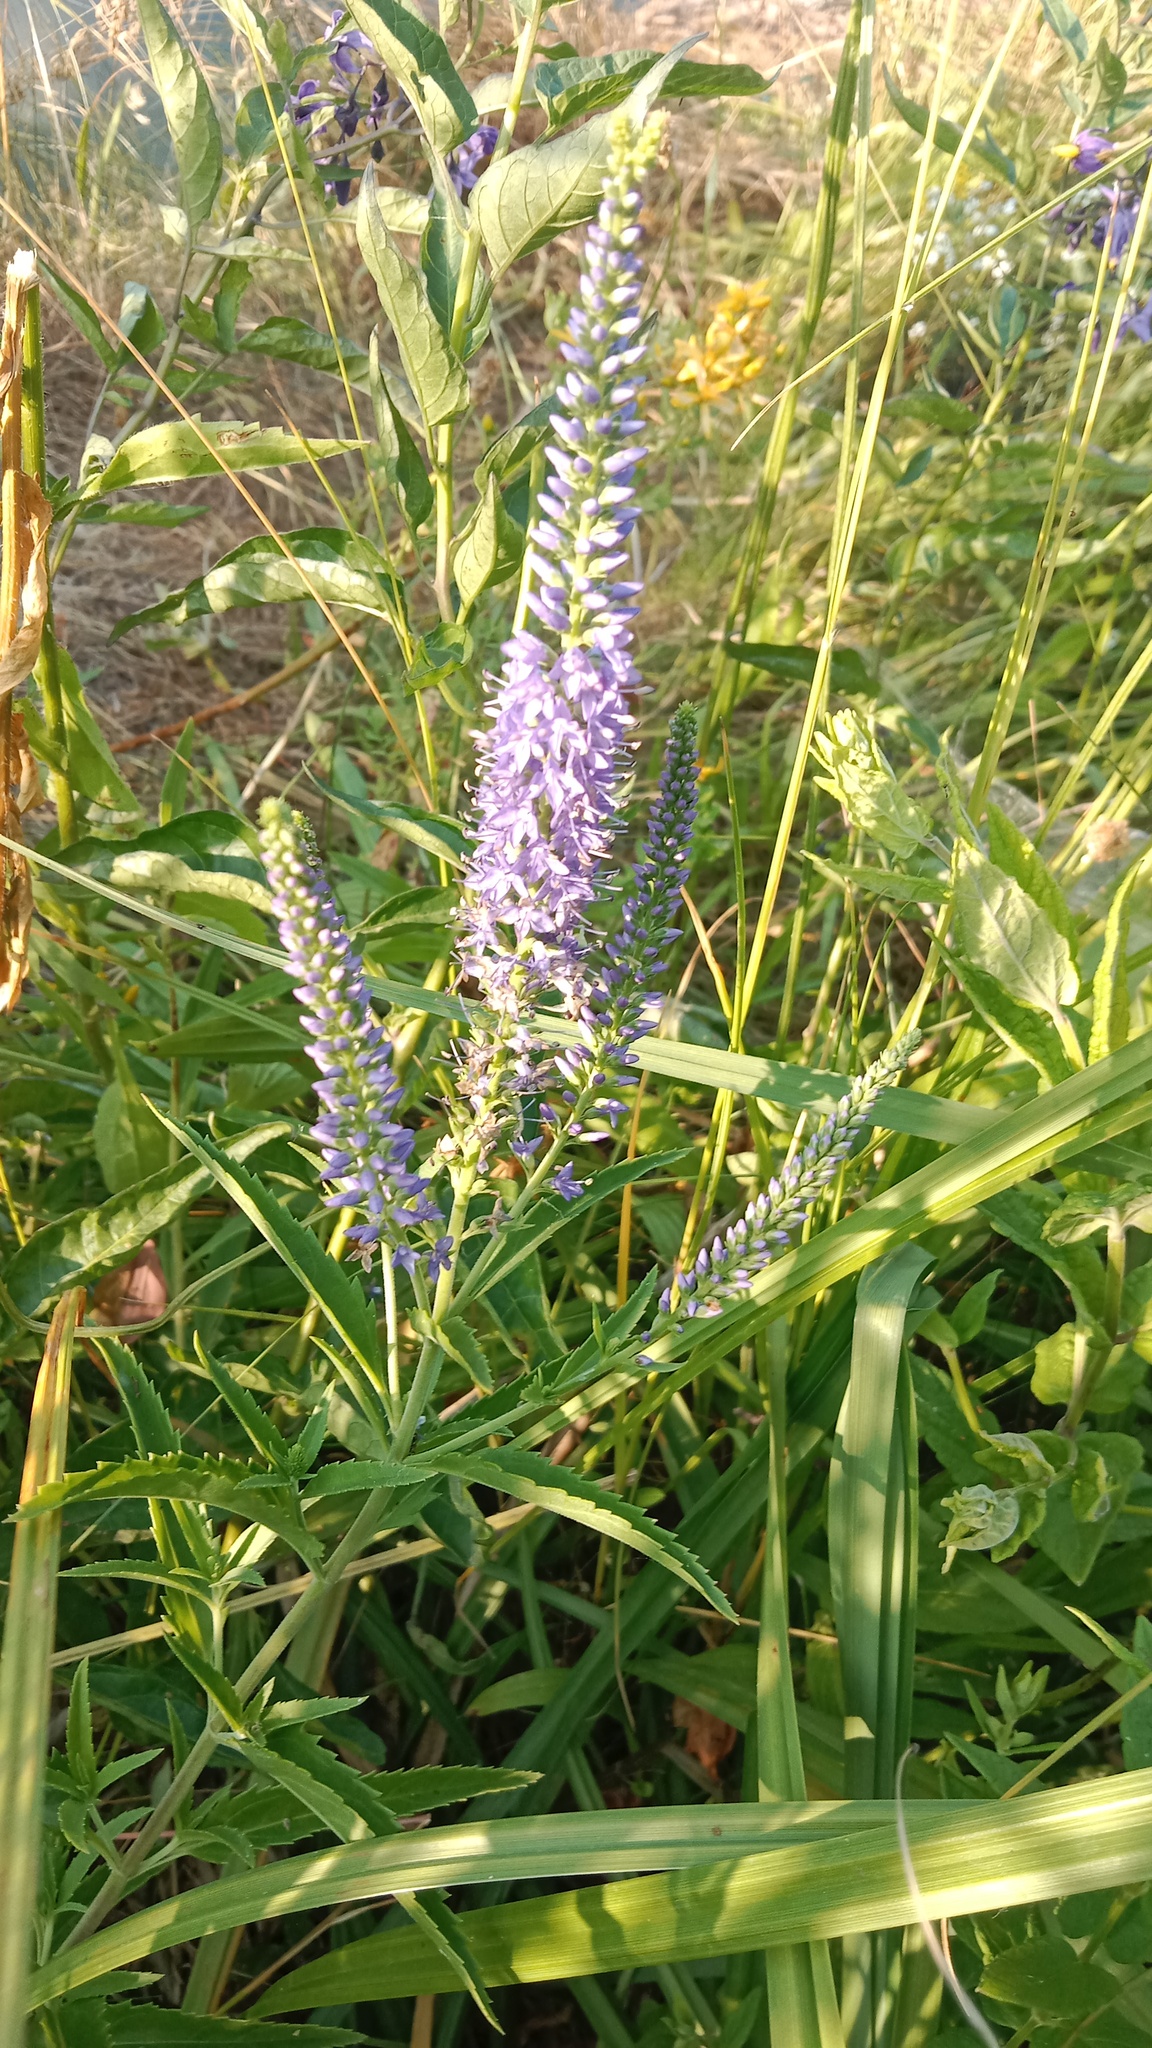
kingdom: Plantae
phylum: Tracheophyta
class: Magnoliopsida
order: Lamiales
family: Plantaginaceae
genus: Veronica
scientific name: Veronica spuria
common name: Bastard speedwell
